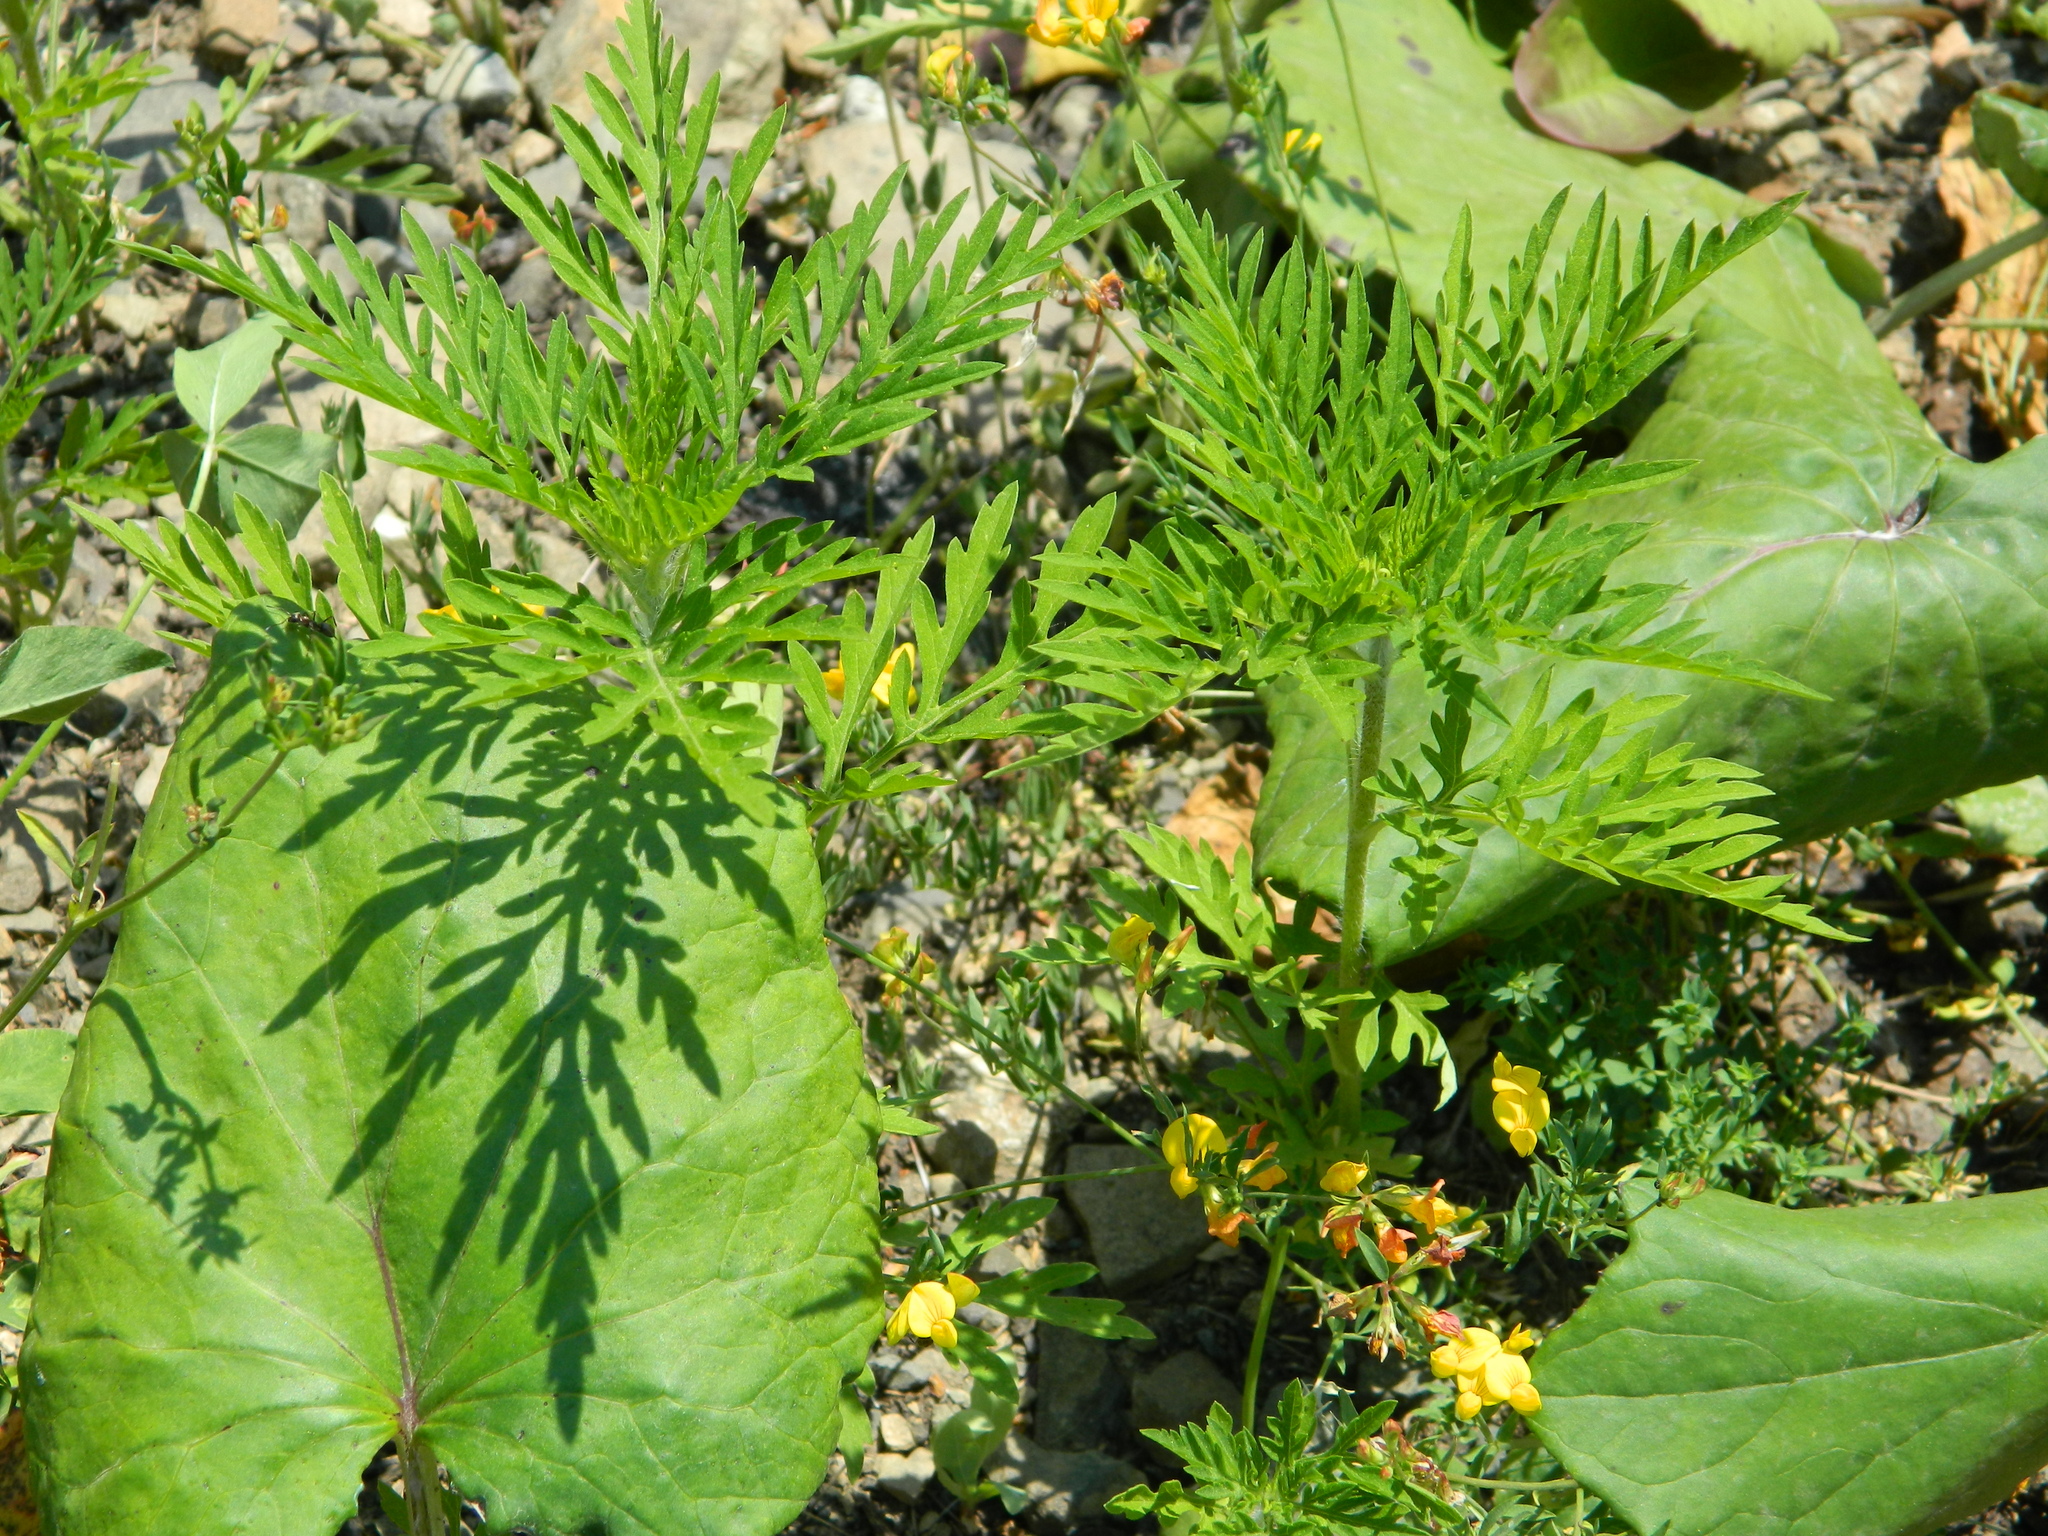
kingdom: Plantae
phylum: Tracheophyta
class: Magnoliopsida
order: Asterales
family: Asteraceae
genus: Ambrosia
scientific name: Ambrosia artemisiifolia
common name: Annual ragweed
